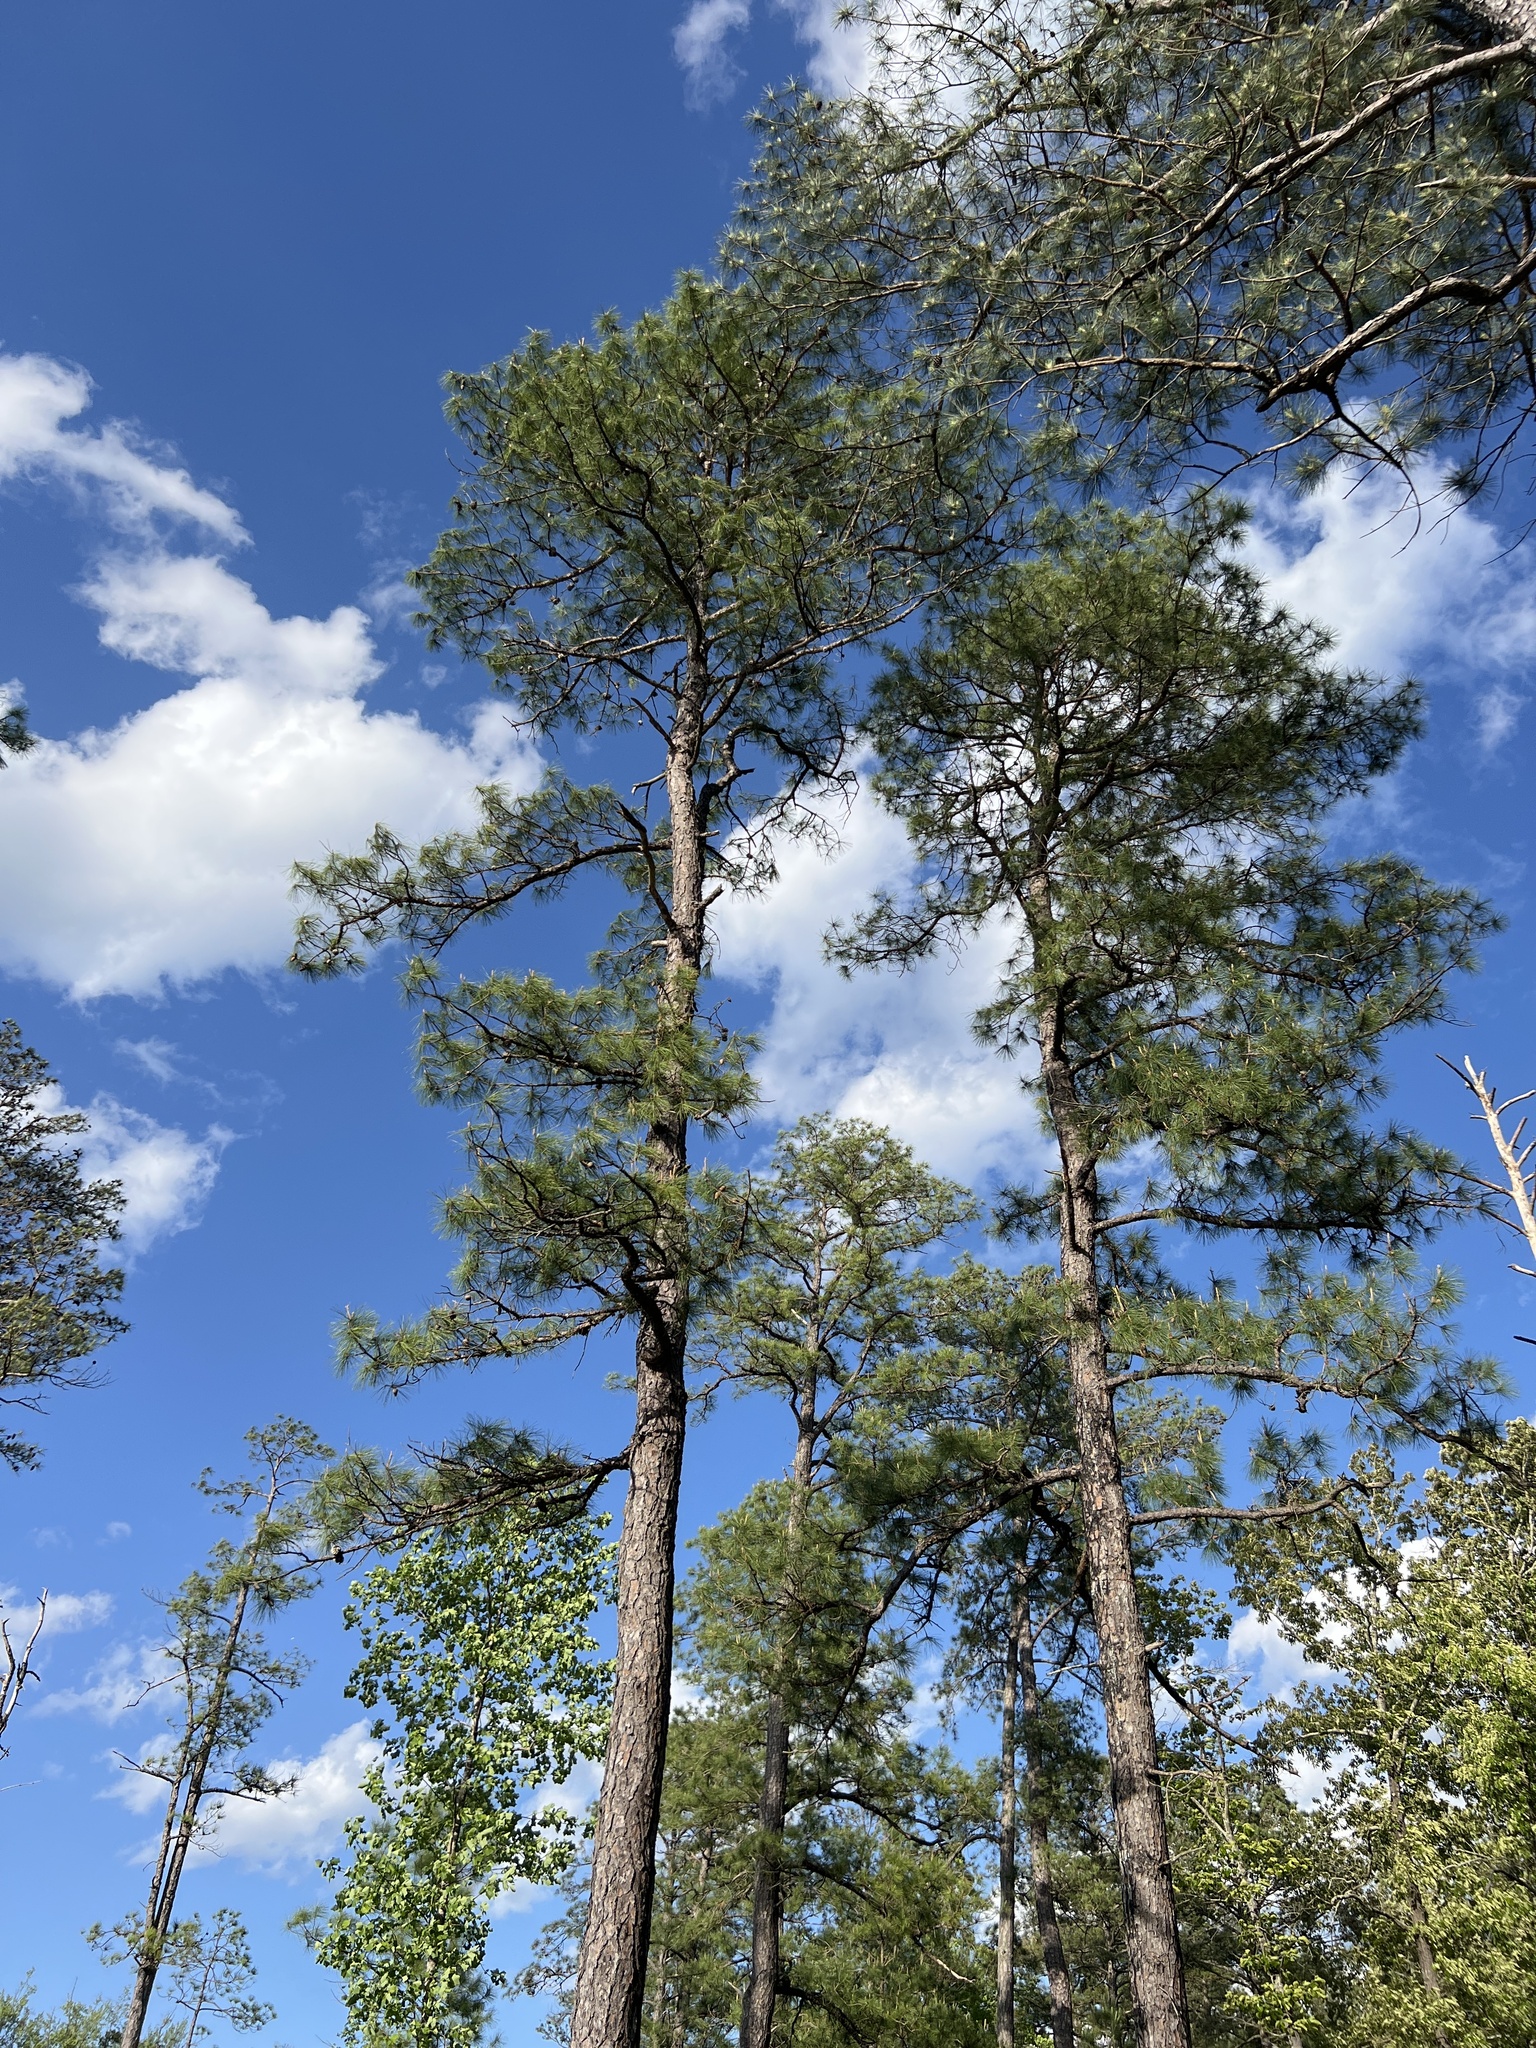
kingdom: Plantae
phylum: Tracheophyta
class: Pinopsida
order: Pinales
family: Pinaceae
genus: Pinus
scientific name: Pinus serotina
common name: Marsh pine
